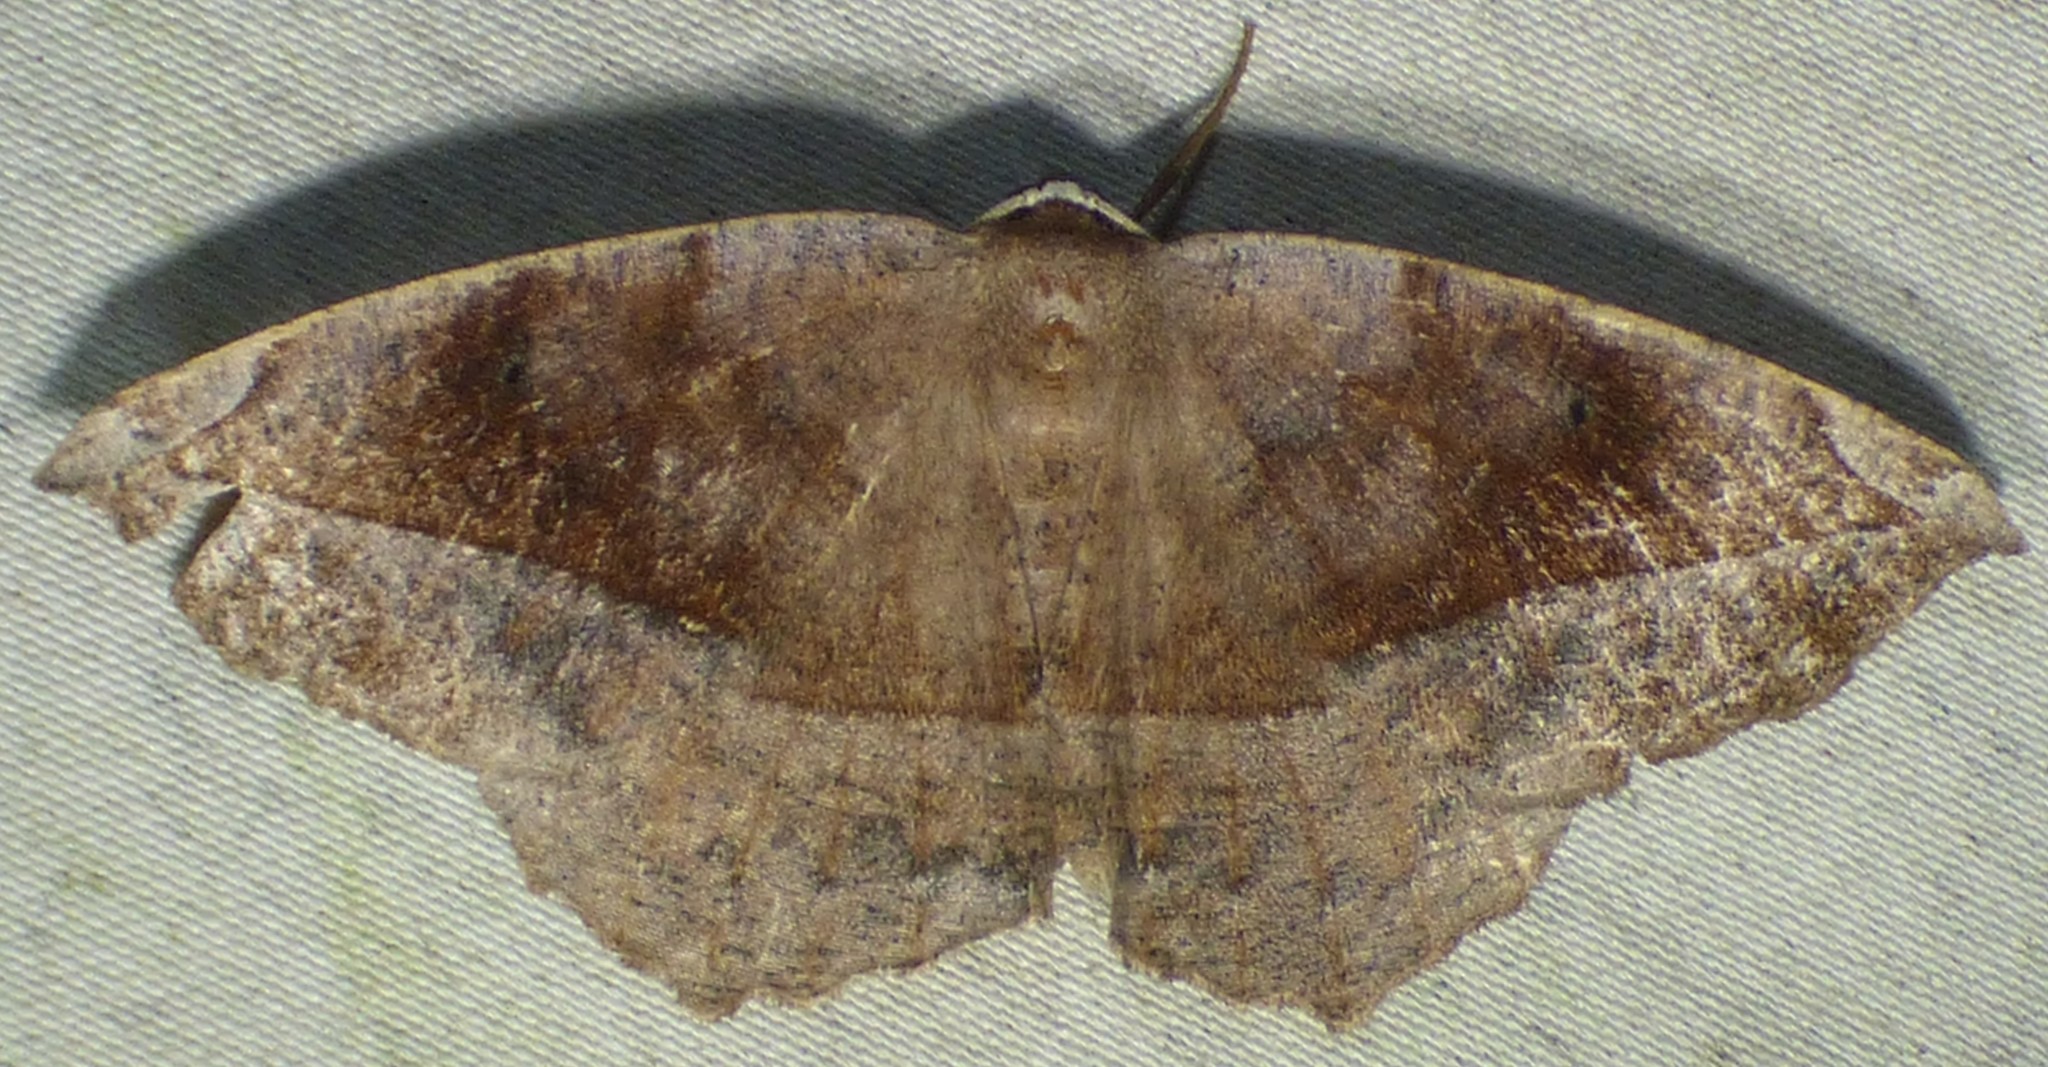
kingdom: Animalia
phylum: Arthropoda
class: Insecta
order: Lepidoptera
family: Geometridae
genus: Eutrapela
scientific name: Eutrapela clemataria
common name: Curved-toothed geometer
